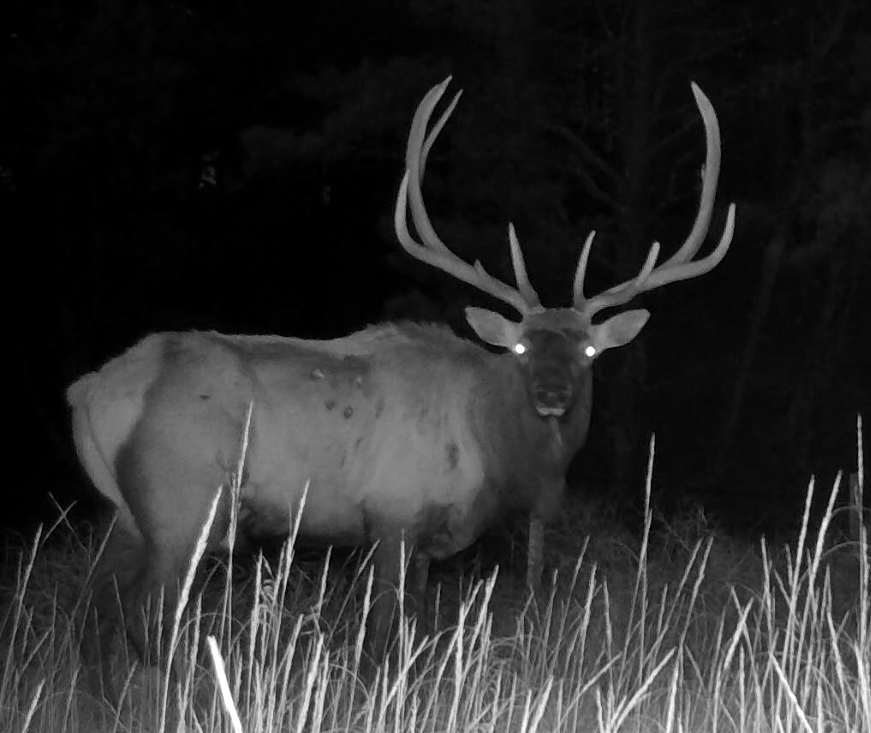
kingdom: Animalia
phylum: Chordata
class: Mammalia
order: Artiodactyla
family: Cervidae
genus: Cervus
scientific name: Cervus elaphus
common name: Red deer
